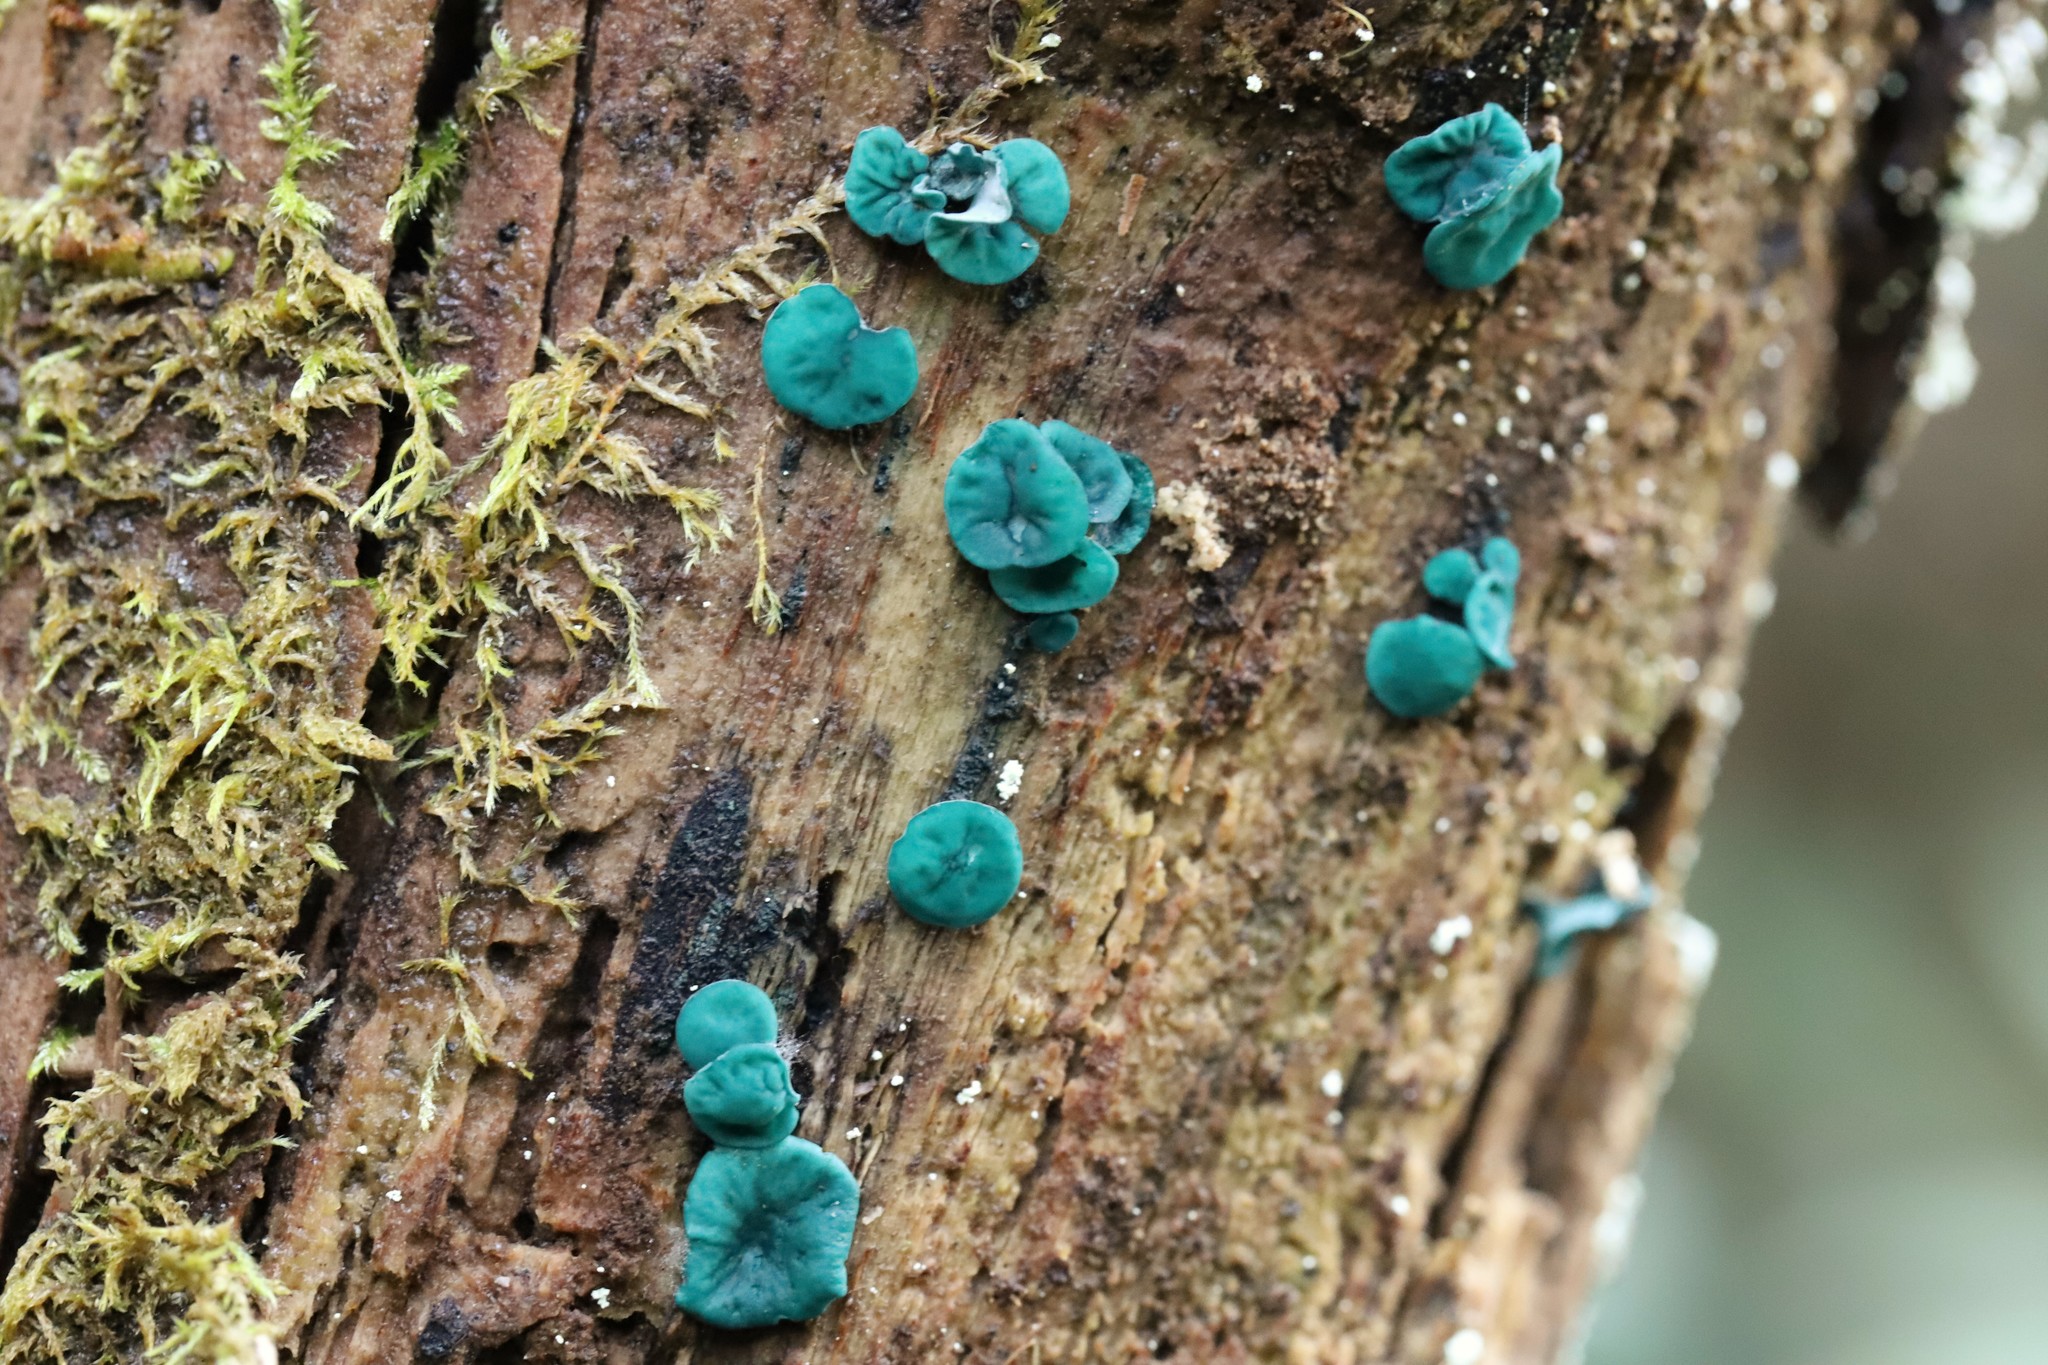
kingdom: Fungi
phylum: Ascomycota
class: Leotiomycetes
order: Helotiales
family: Chlorociboriaceae
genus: Chlorociboria
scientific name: Chlorociboria
